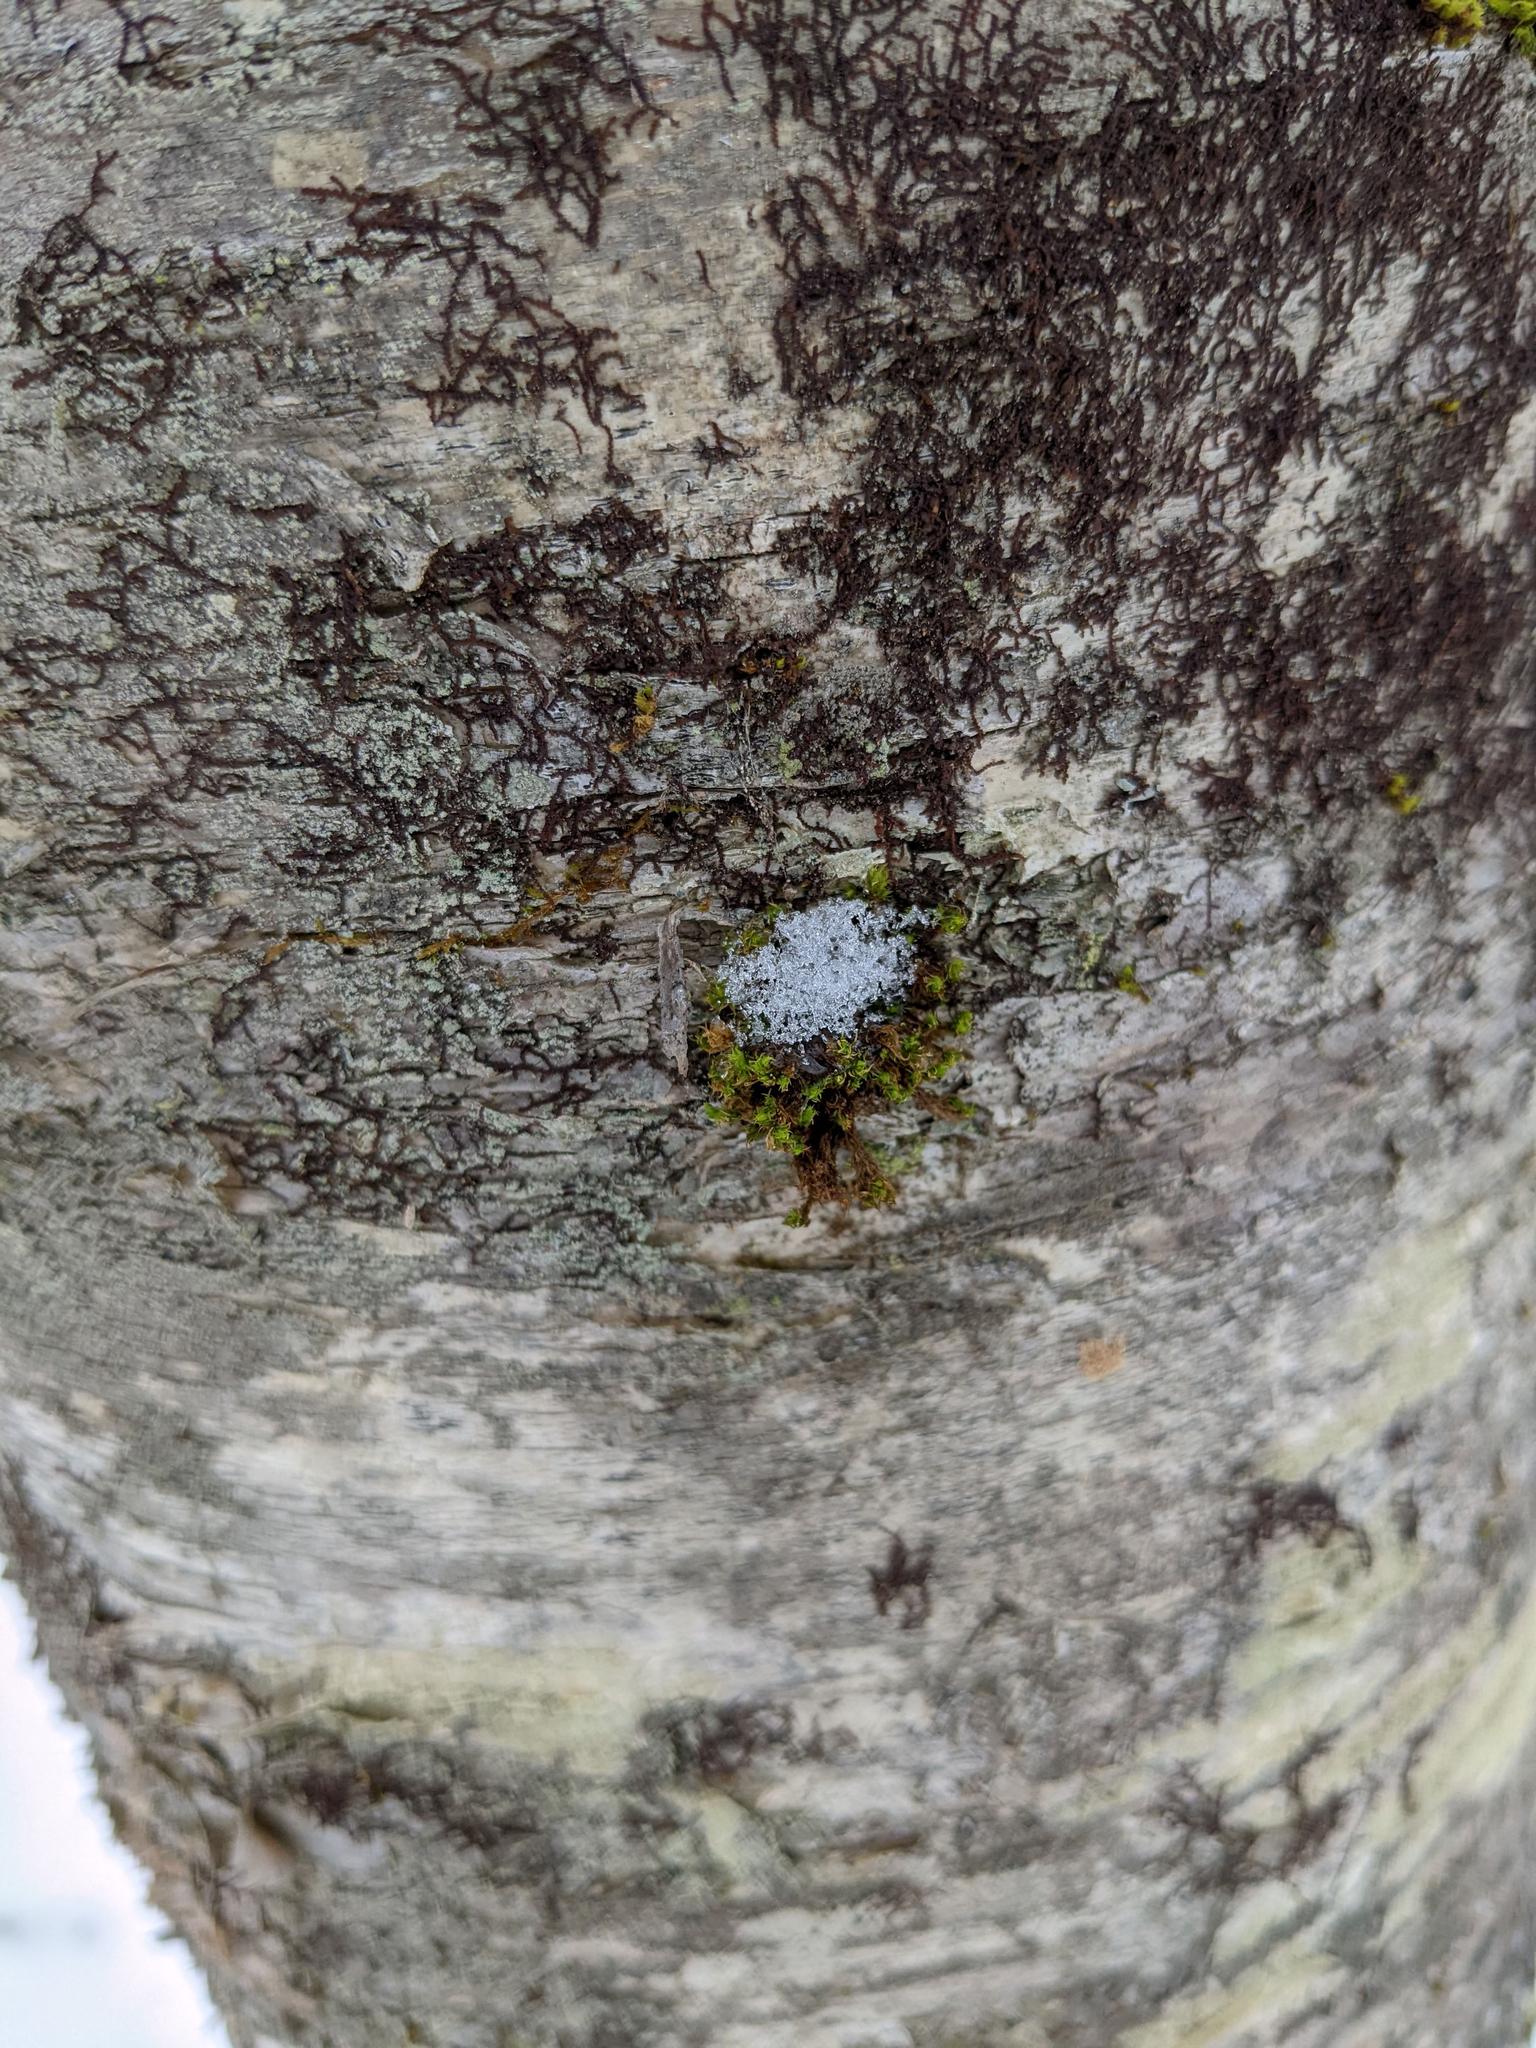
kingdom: Plantae
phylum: Bryophyta
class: Bryopsida
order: Orthotrichales
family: Orthotrichaceae
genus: Ulota
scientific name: Ulota crispa
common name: Crisped pincushion moss
